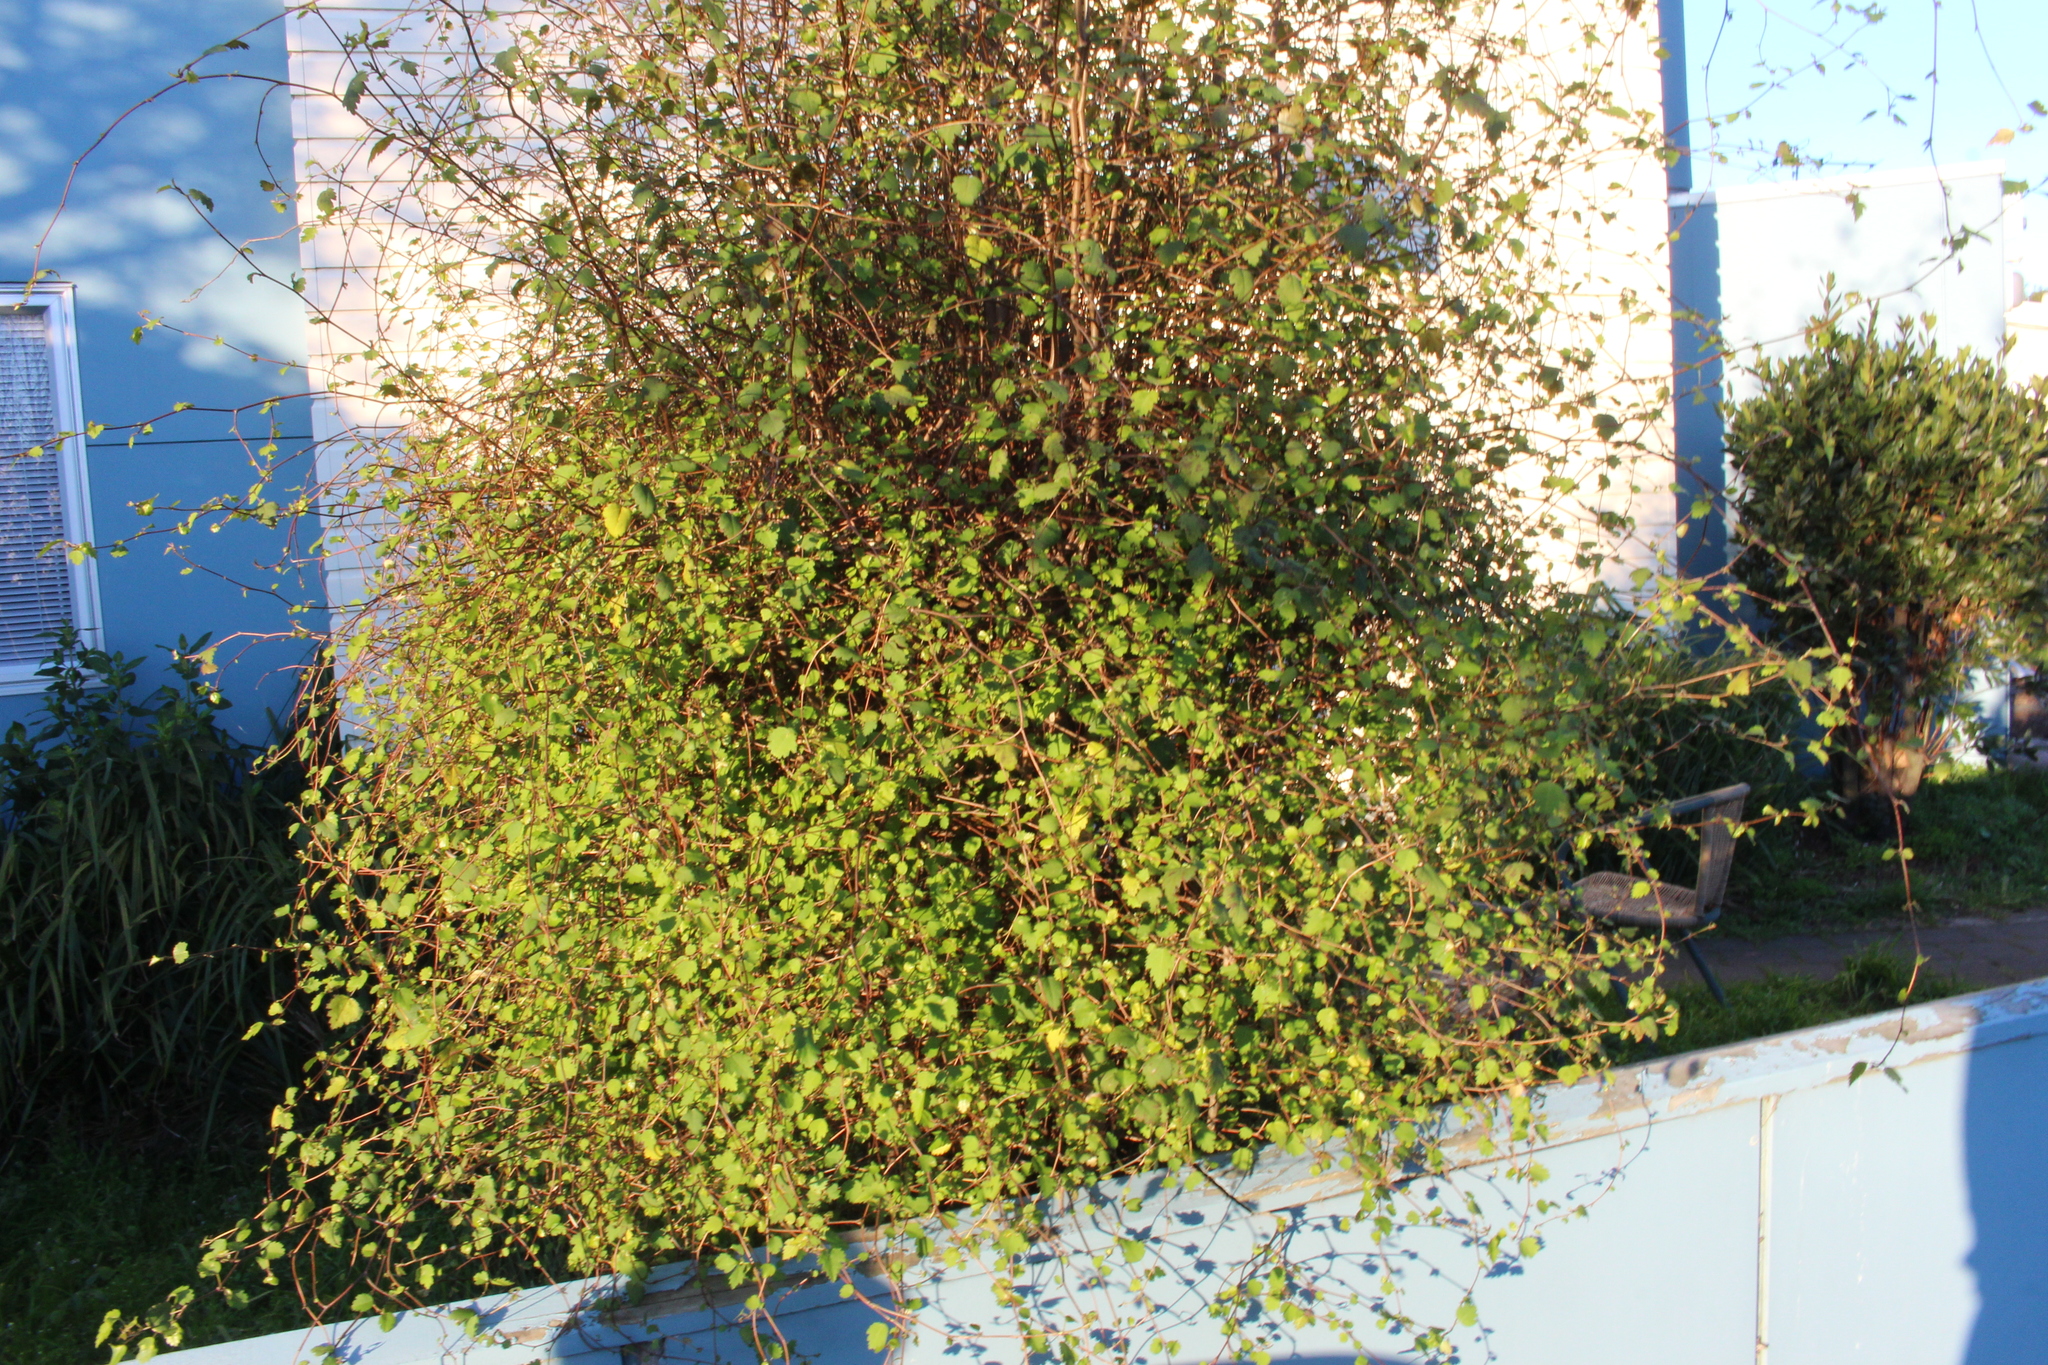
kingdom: Plantae
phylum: Tracheophyta
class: Magnoliopsida
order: Malvales
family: Malvaceae
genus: Plagianthus
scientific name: Plagianthus regius
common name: Manatu
